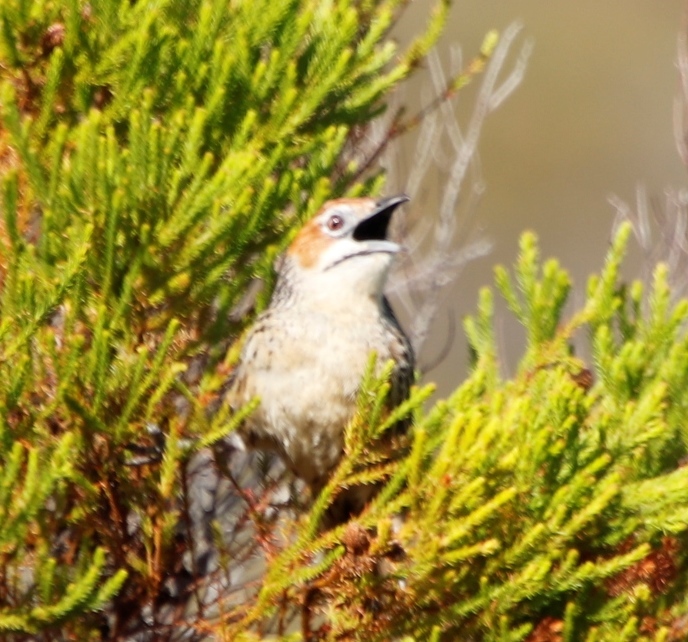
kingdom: Animalia
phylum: Chordata
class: Aves
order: Passeriformes
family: Macrosphenidae
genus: Sphenoeacus
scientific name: Sphenoeacus afer
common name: Cape grassbird
